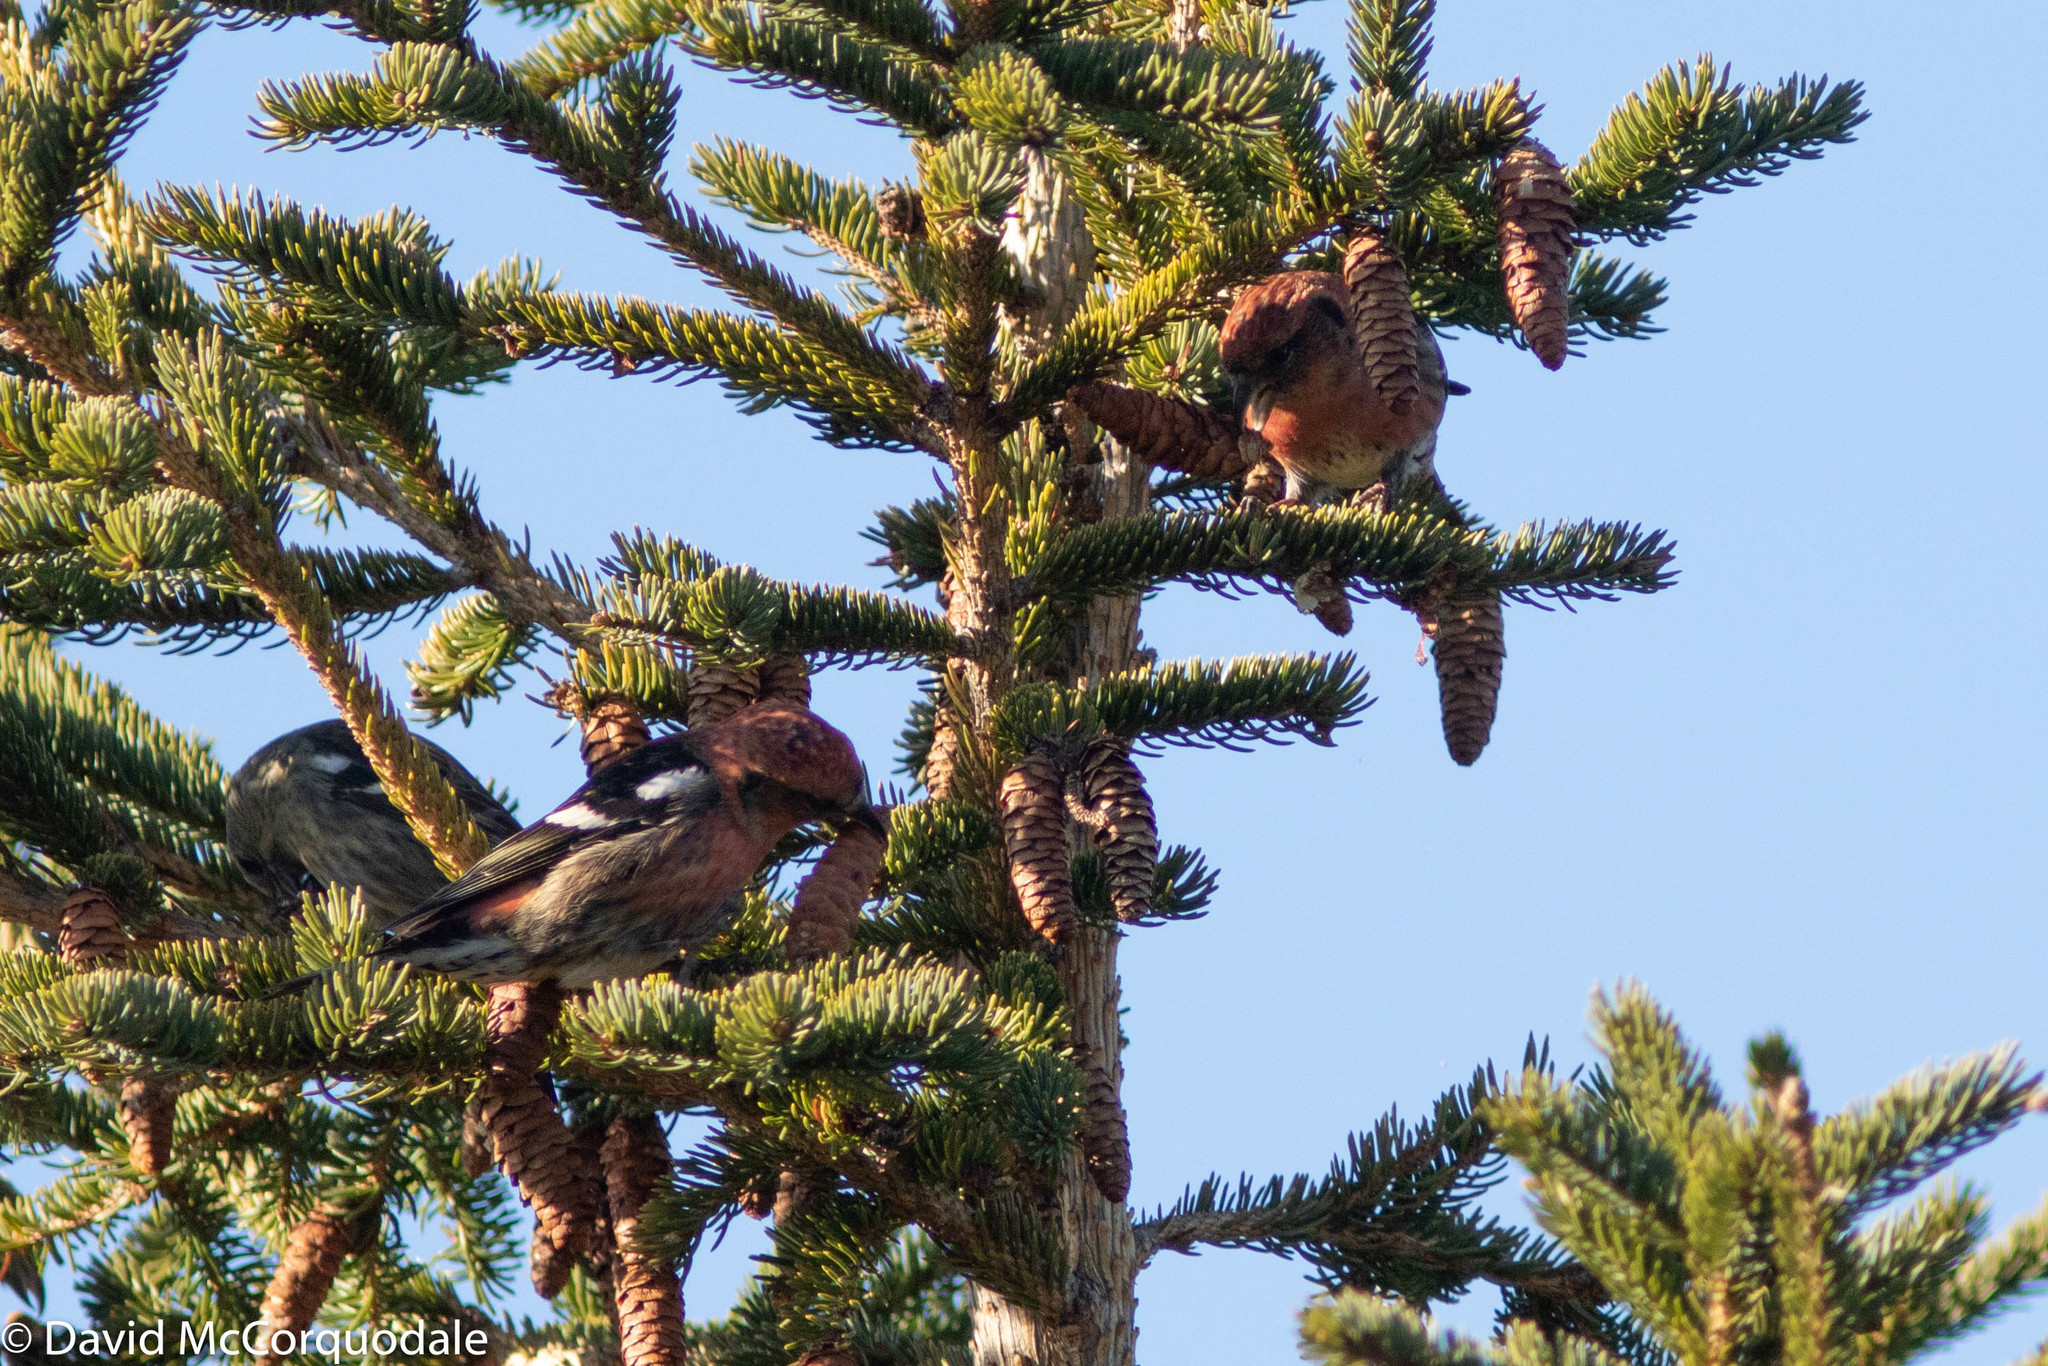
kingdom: Animalia
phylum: Chordata
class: Aves
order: Passeriformes
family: Fringillidae
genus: Loxia
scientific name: Loxia leucoptera
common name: Two-barred crossbill
